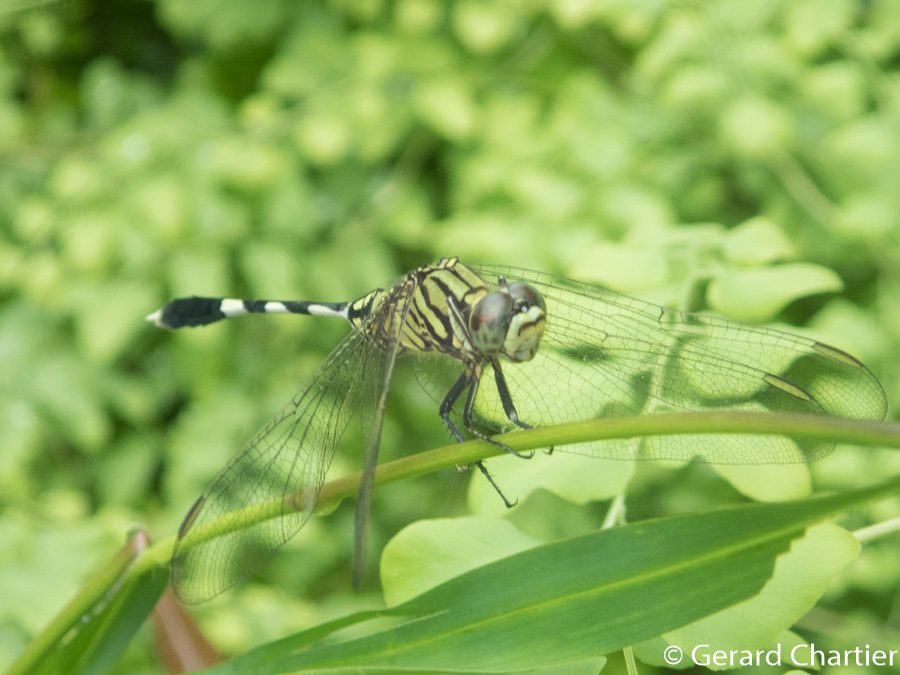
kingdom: Animalia
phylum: Arthropoda
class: Insecta
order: Odonata
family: Libellulidae
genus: Orthetrum
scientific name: Orthetrum sabina
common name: Slender skimmer
